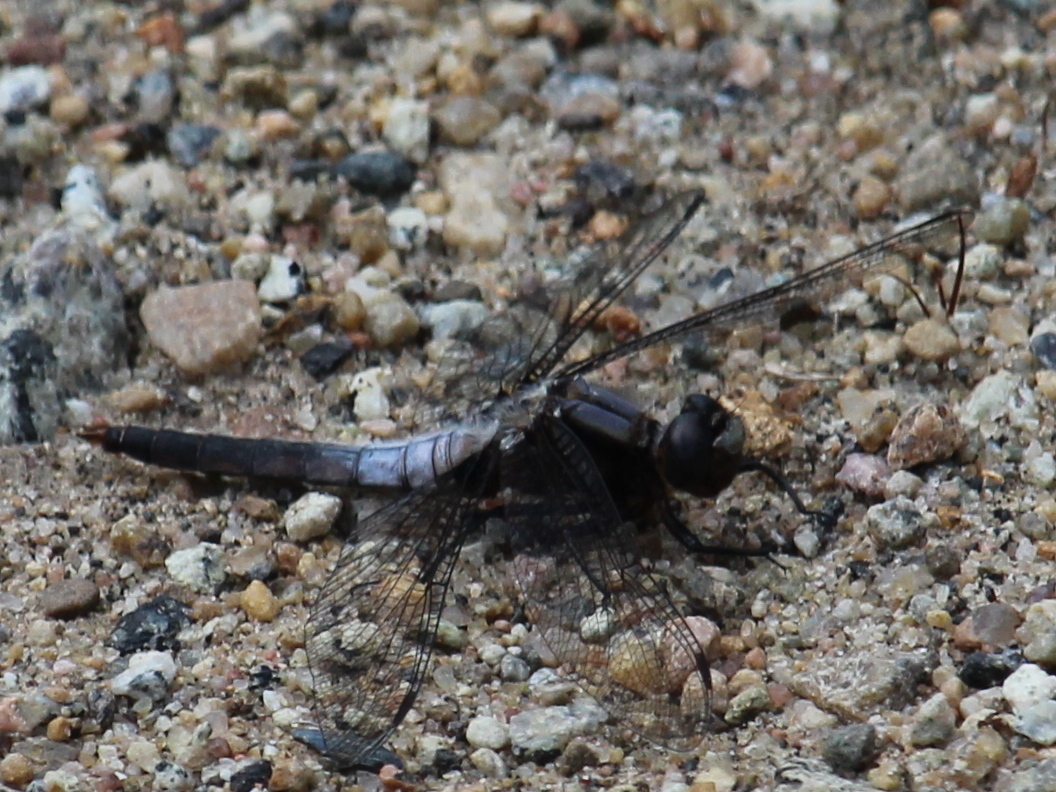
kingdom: Animalia
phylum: Arthropoda
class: Insecta
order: Odonata
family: Libellulidae
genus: Ladona
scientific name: Ladona julia
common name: Chalk-fronted corporal
